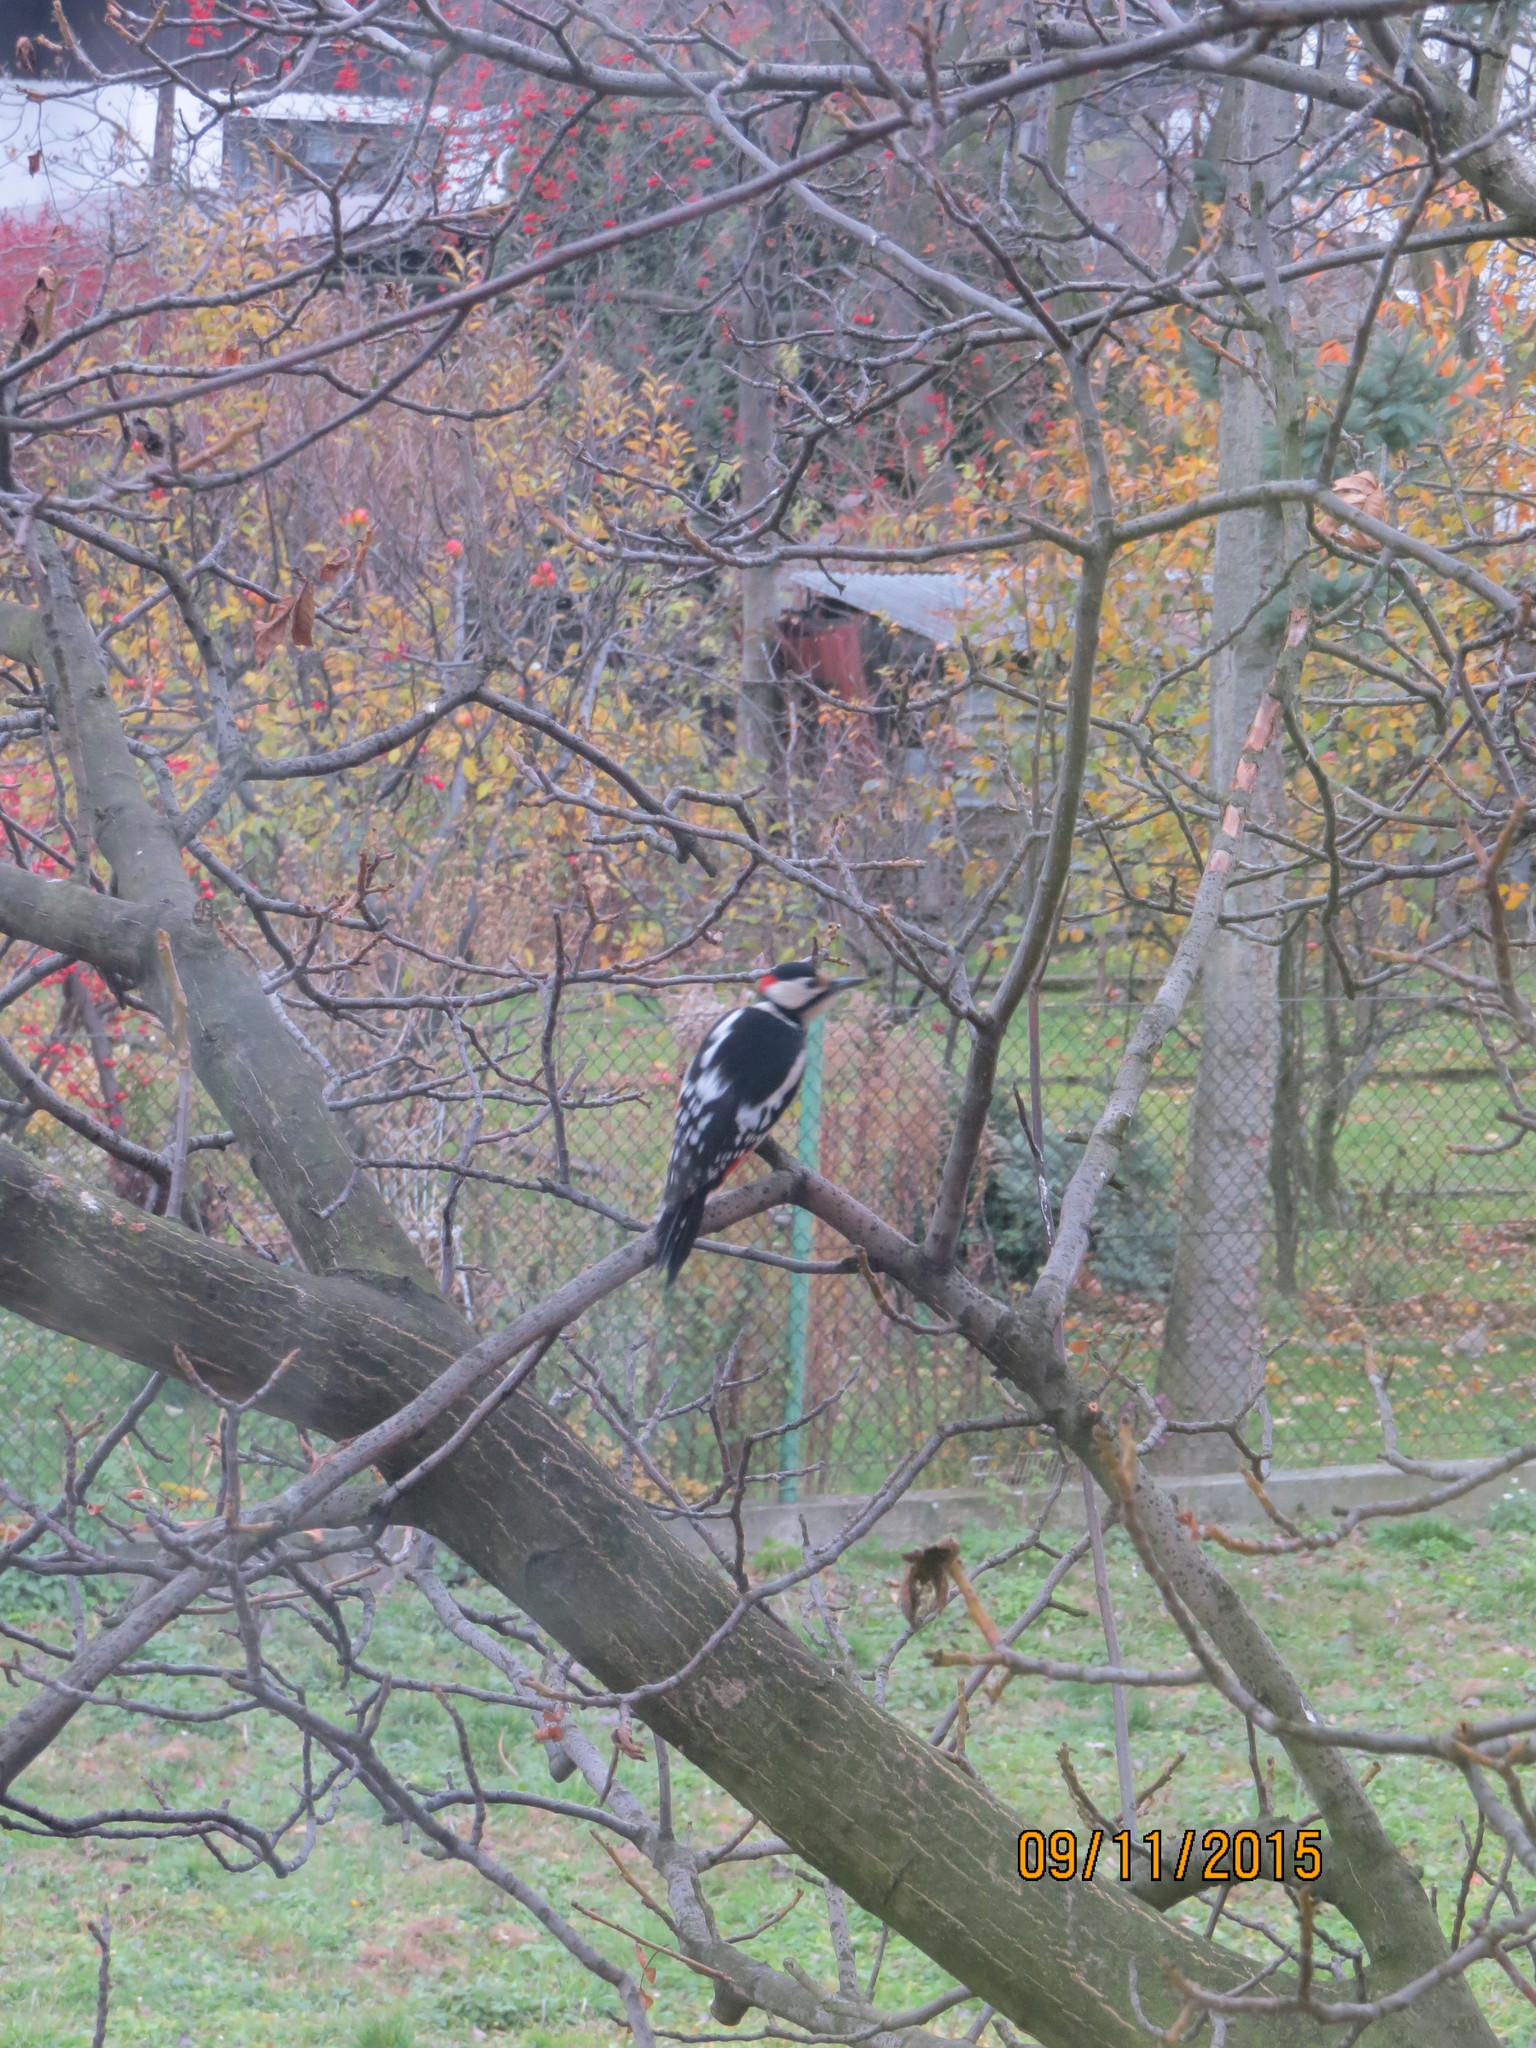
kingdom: Animalia
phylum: Chordata
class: Aves
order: Piciformes
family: Picidae
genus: Dendrocopos
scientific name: Dendrocopos major
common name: Great spotted woodpecker
